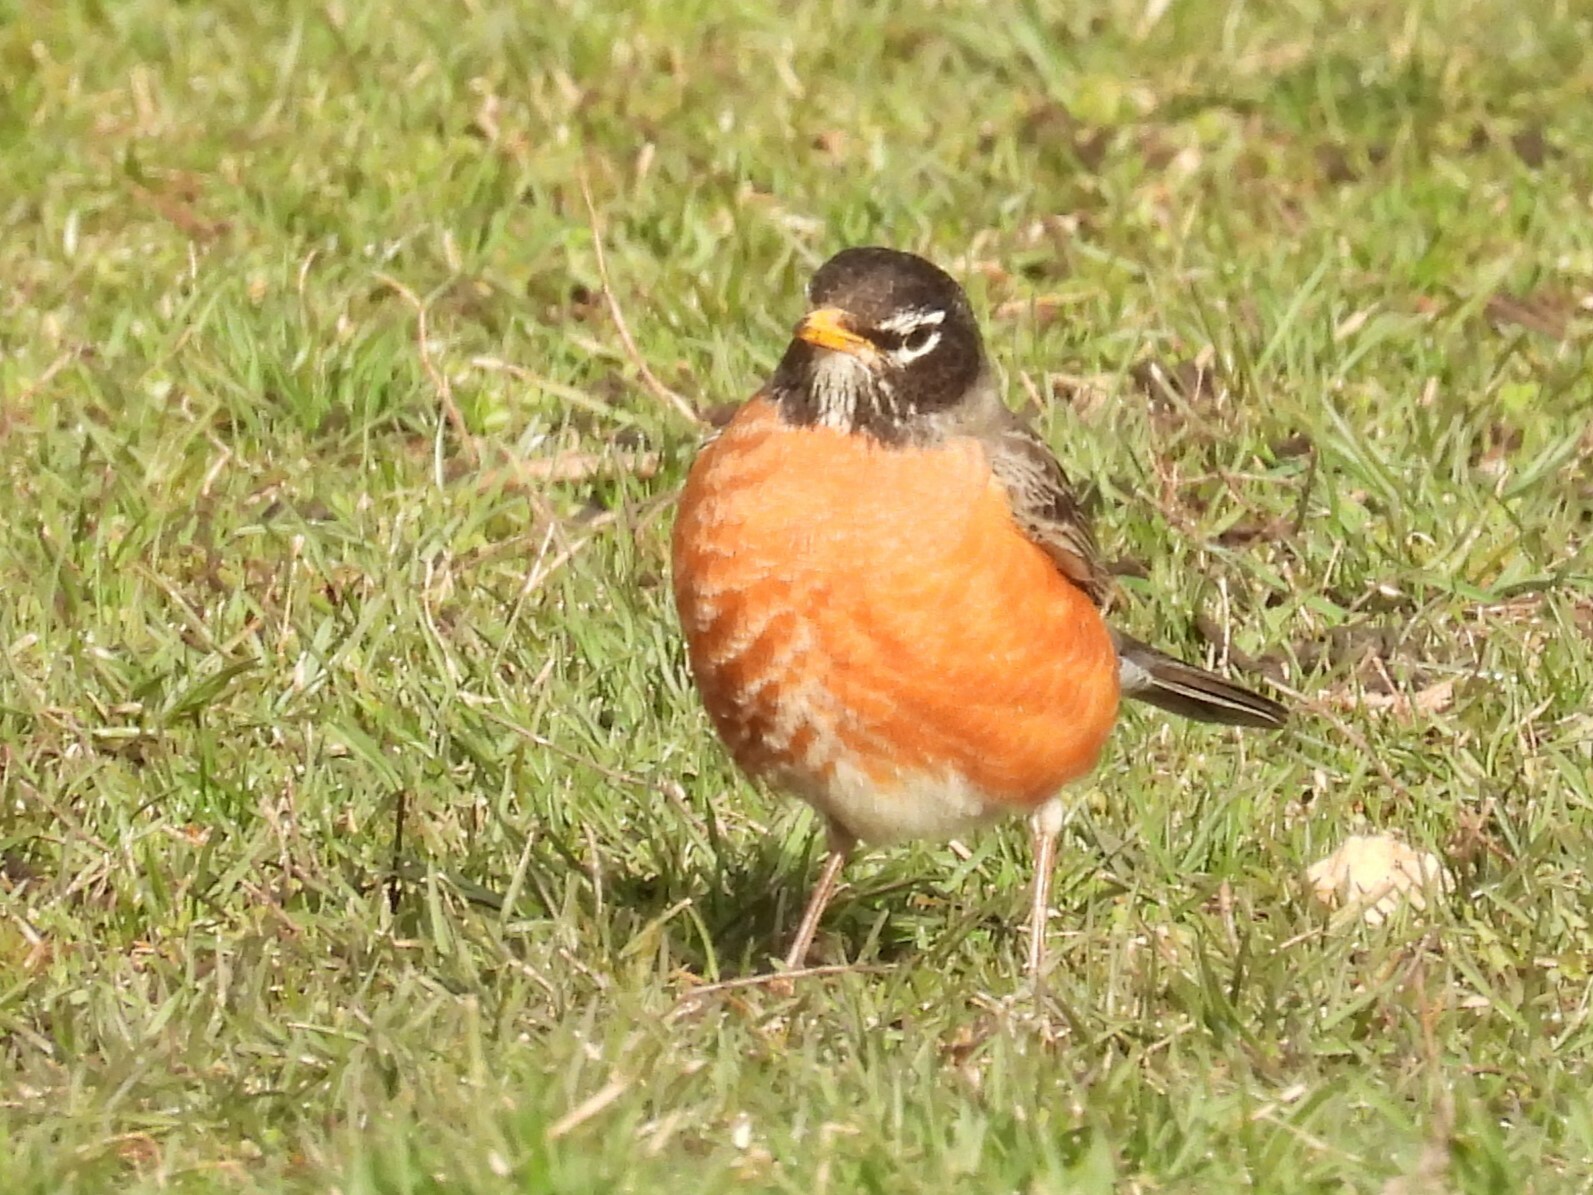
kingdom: Animalia
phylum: Chordata
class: Aves
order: Passeriformes
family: Turdidae
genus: Turdus
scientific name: Turdus migratorius
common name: American robin
